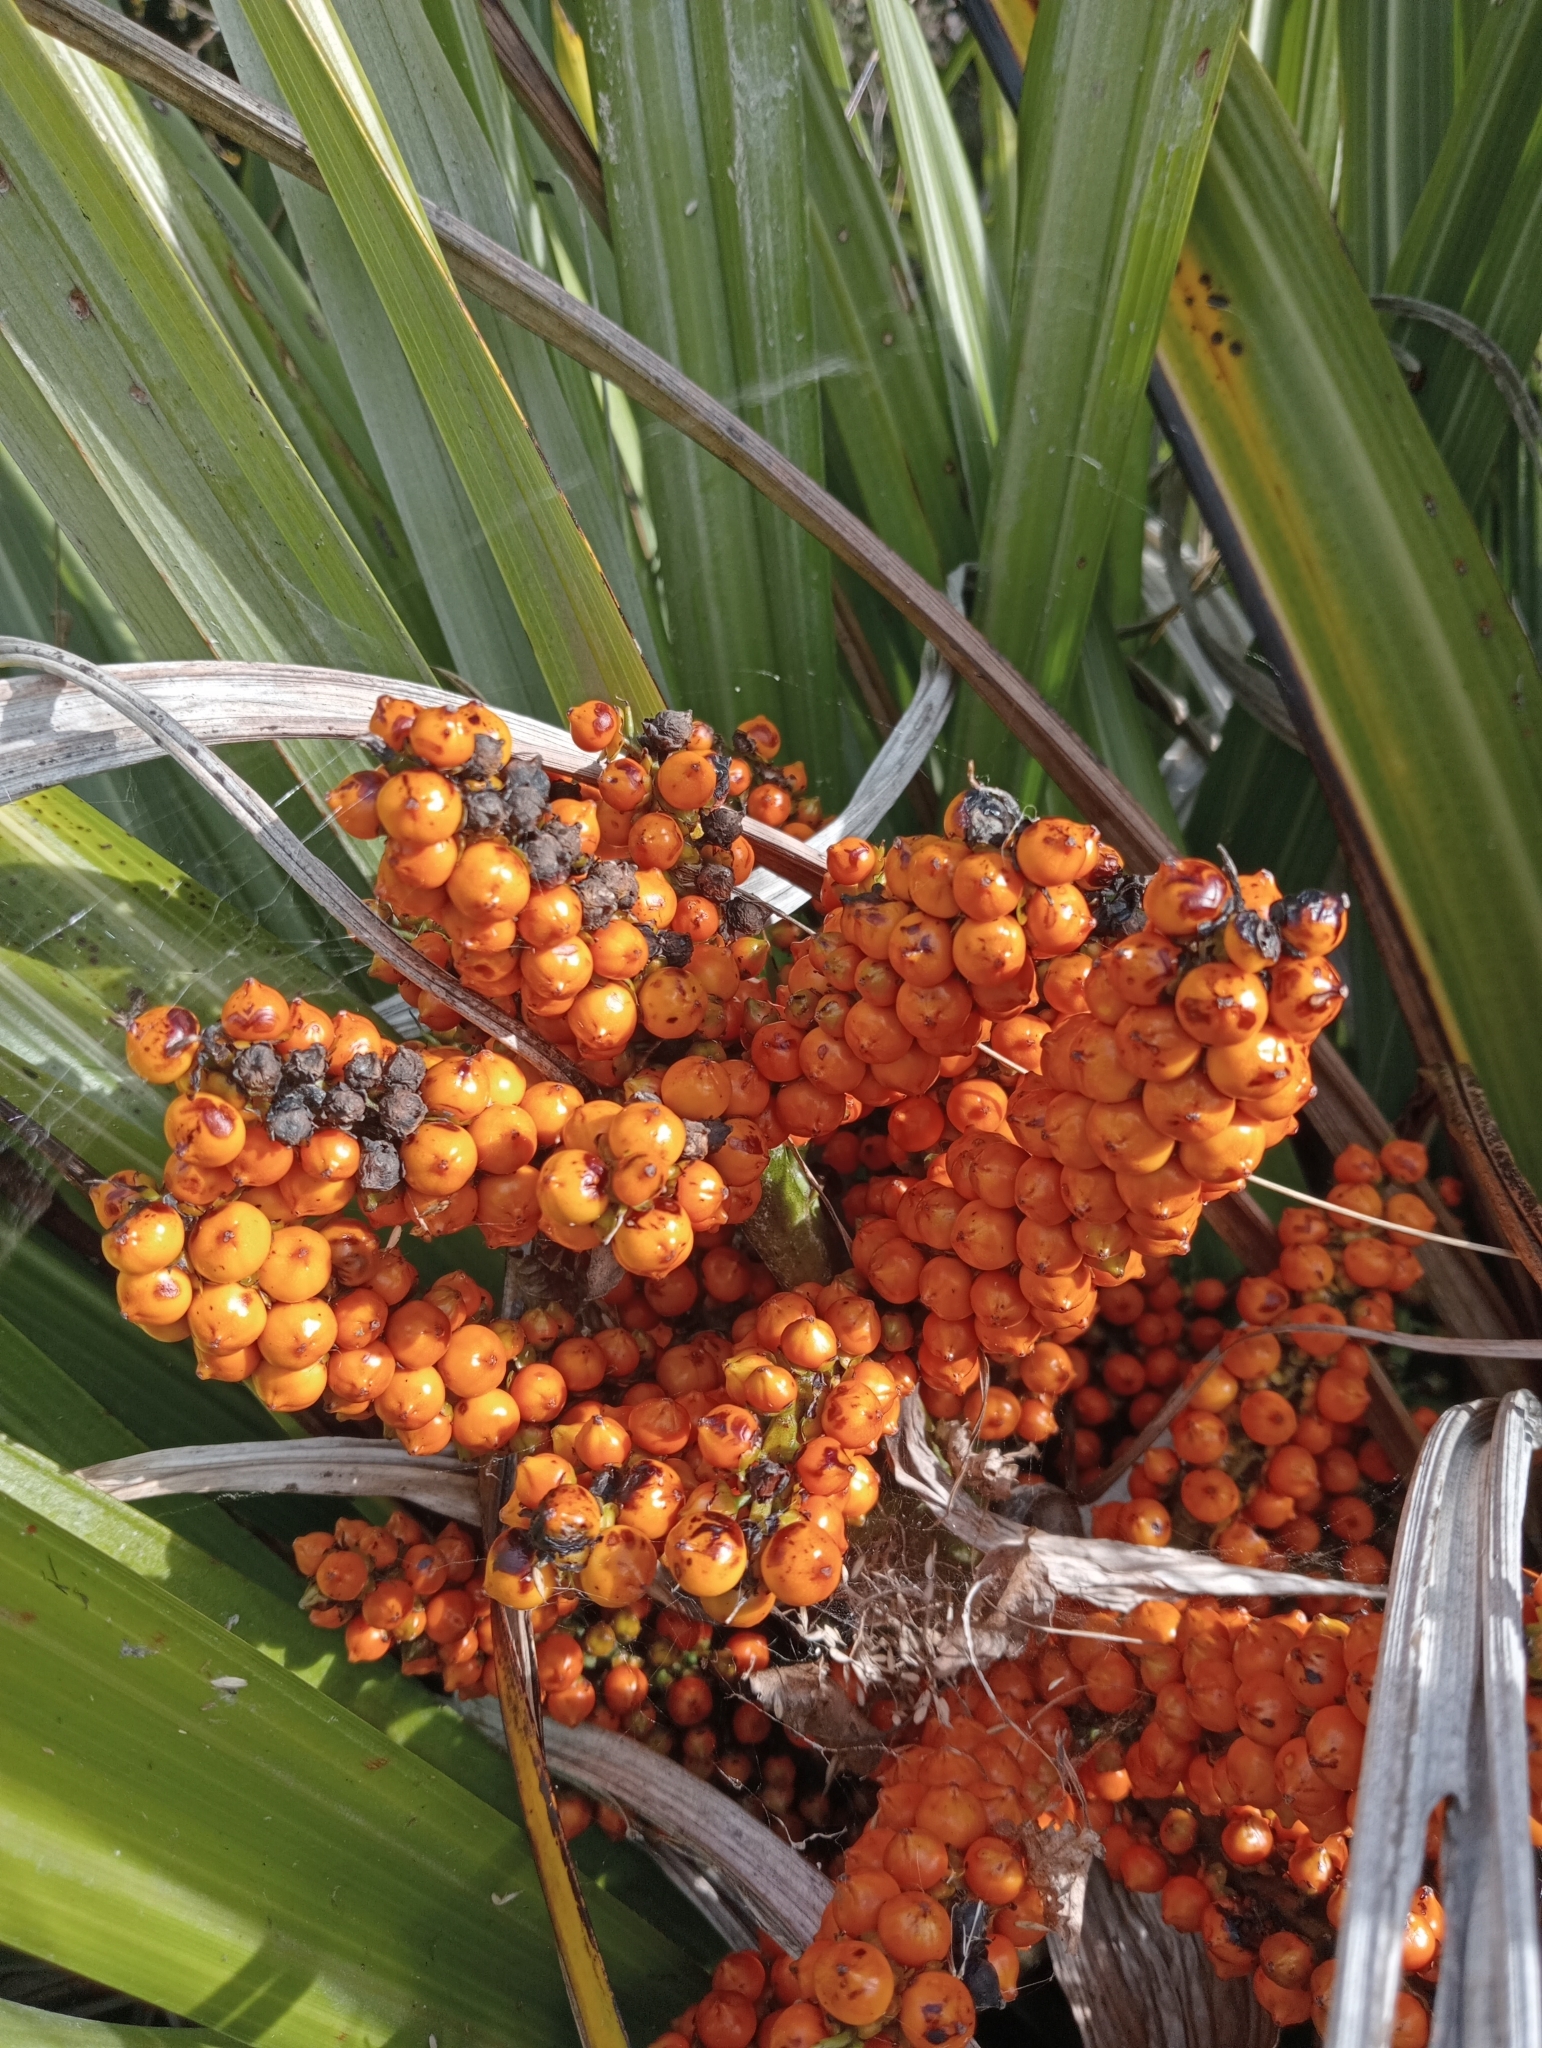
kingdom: Plantae
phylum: Tracheophyta
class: Liliopsida
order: Asparagales
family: Asteliaceae
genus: Astelia
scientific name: Astelia fragrans
